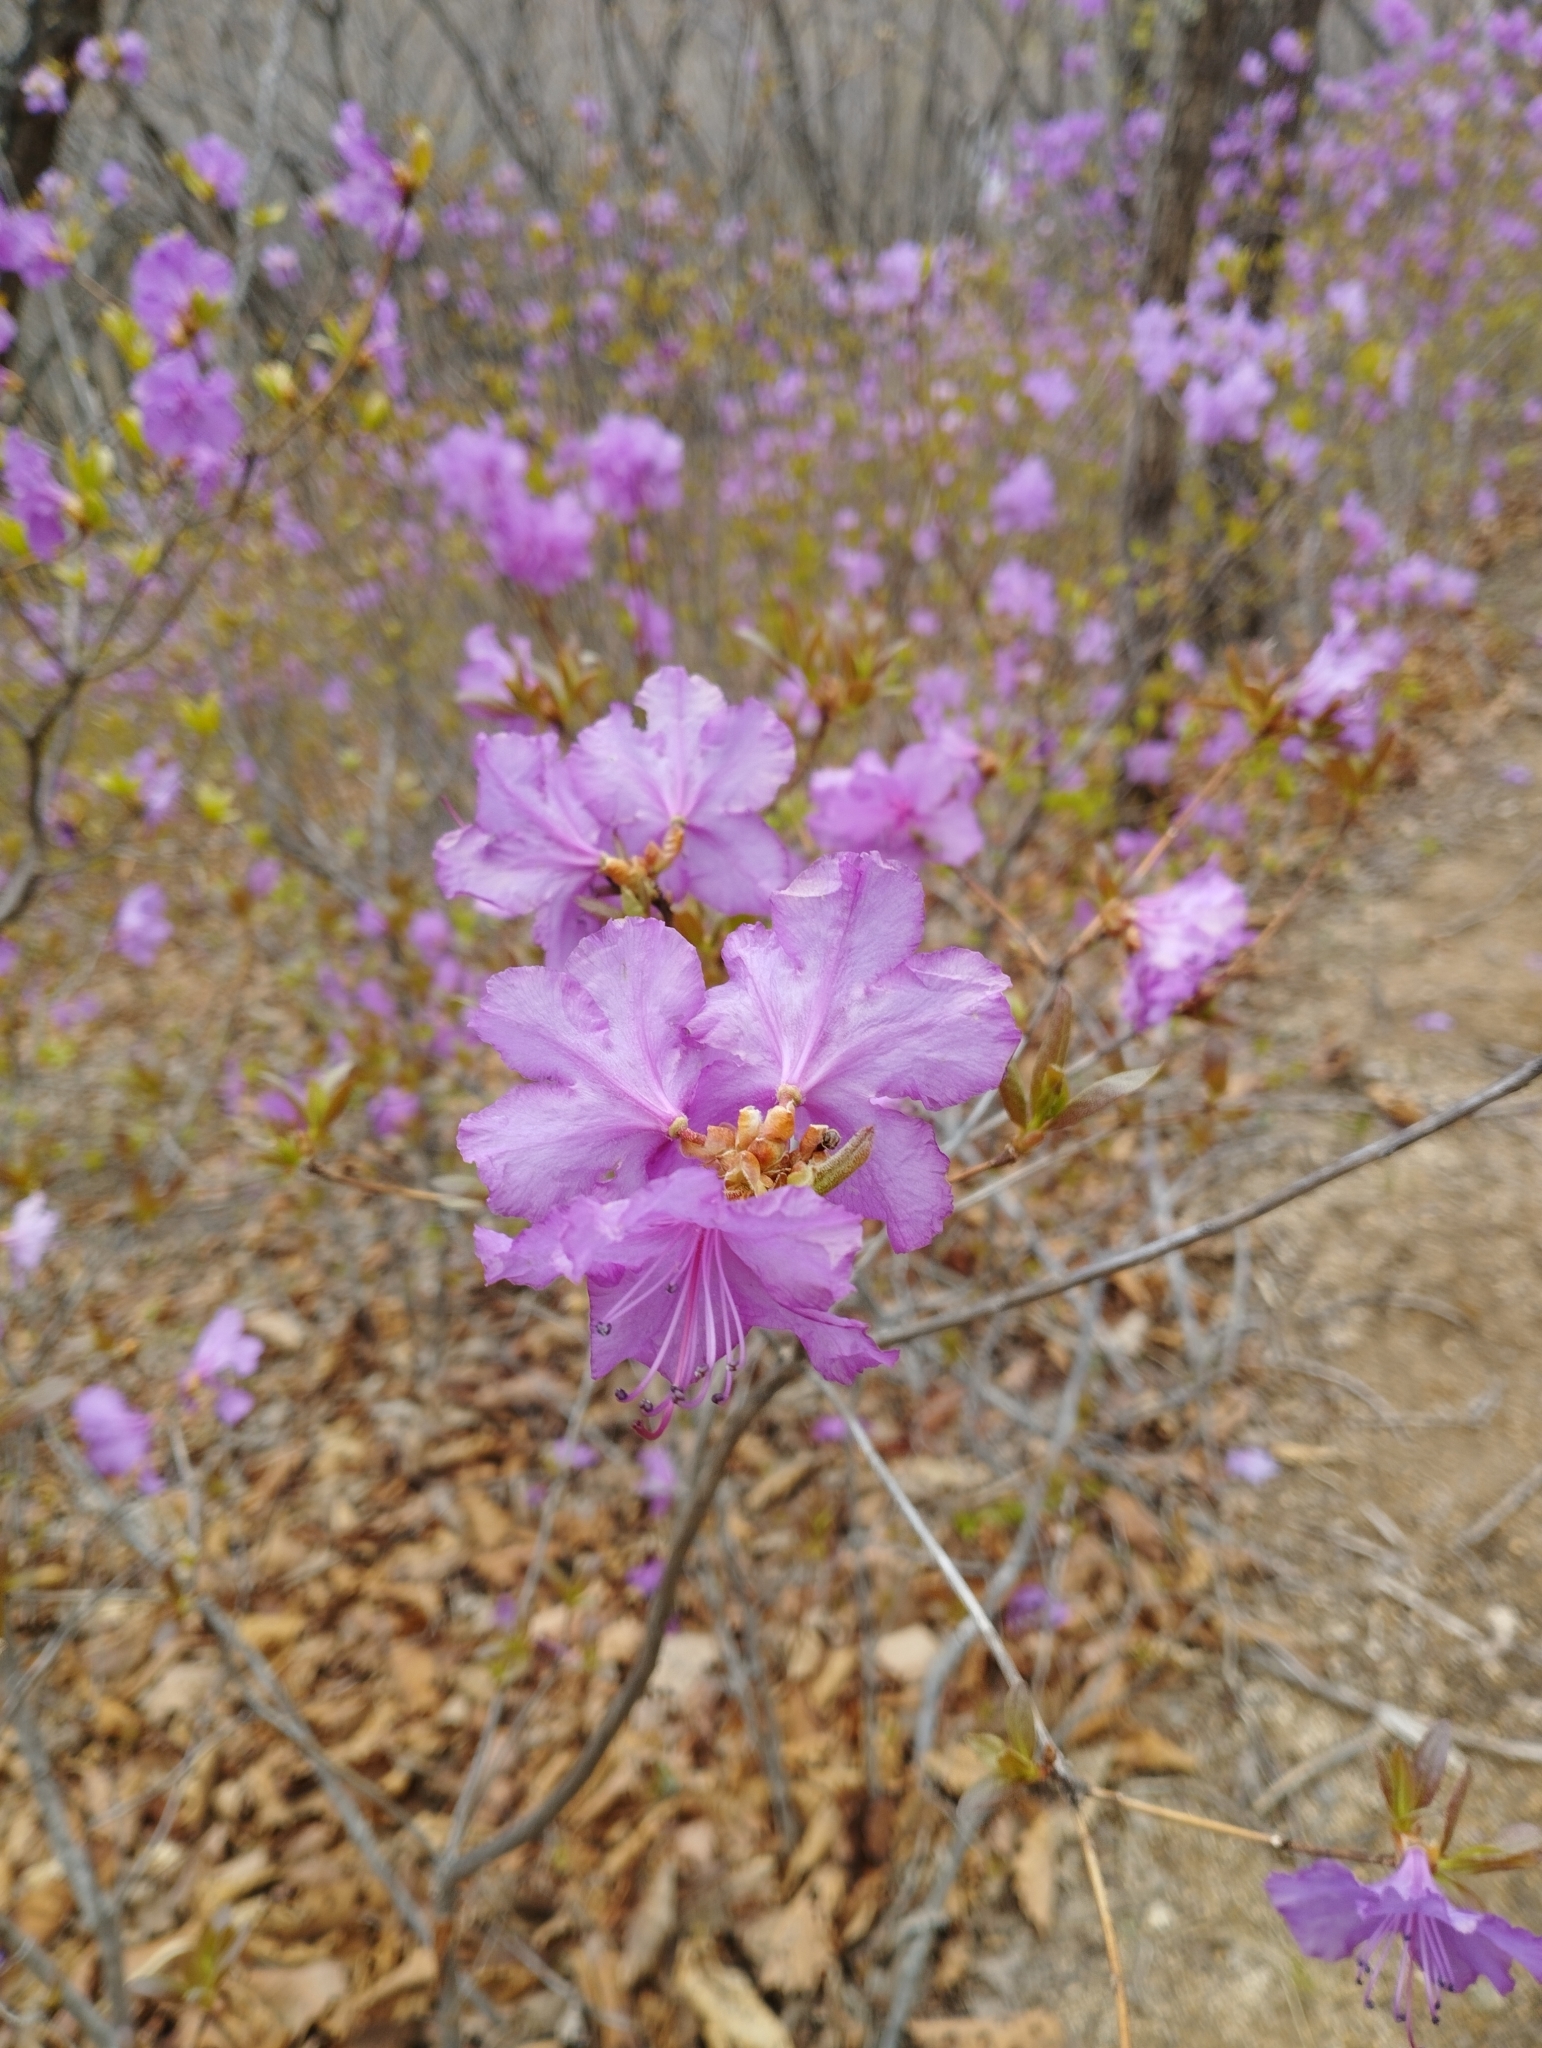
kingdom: Plantae
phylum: Tracheophyta
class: Magnoliopsida
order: Ericales
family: Ericaceae
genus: Rhododendron
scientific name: Rhododendron mucronulatum
